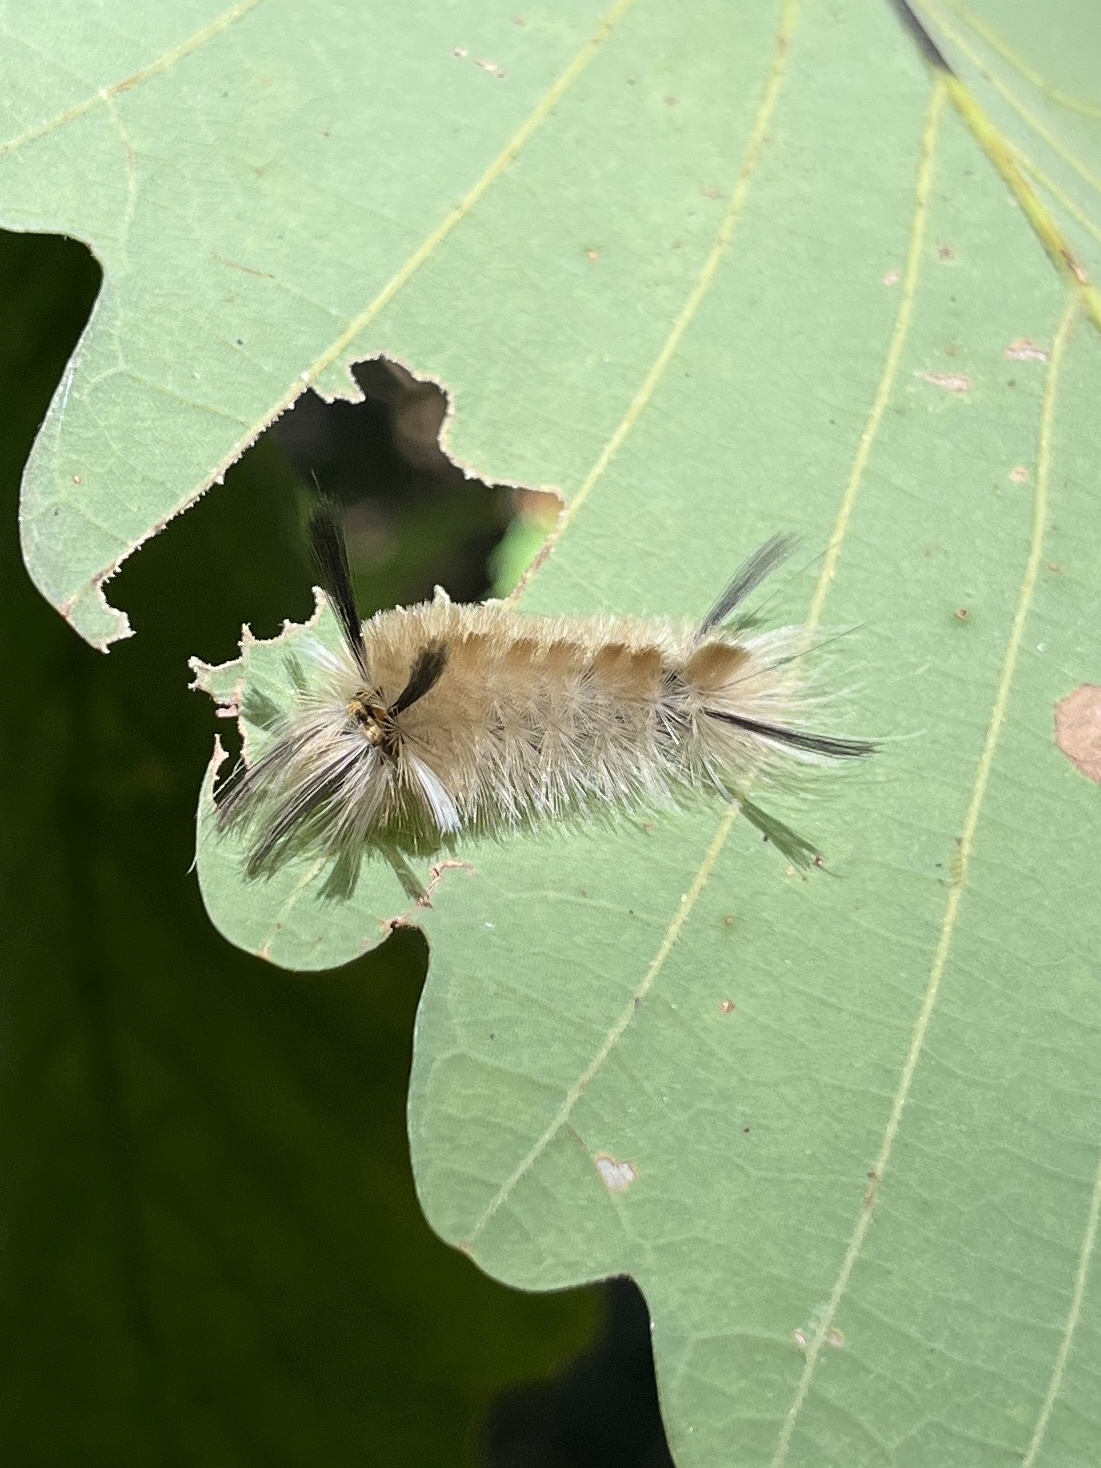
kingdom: Animalia
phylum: Arthropoda
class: Insecta
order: Lepidoptera
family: Erebidae
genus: Halysidota
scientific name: Halysidota tessellaris
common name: Banded tussock moth
